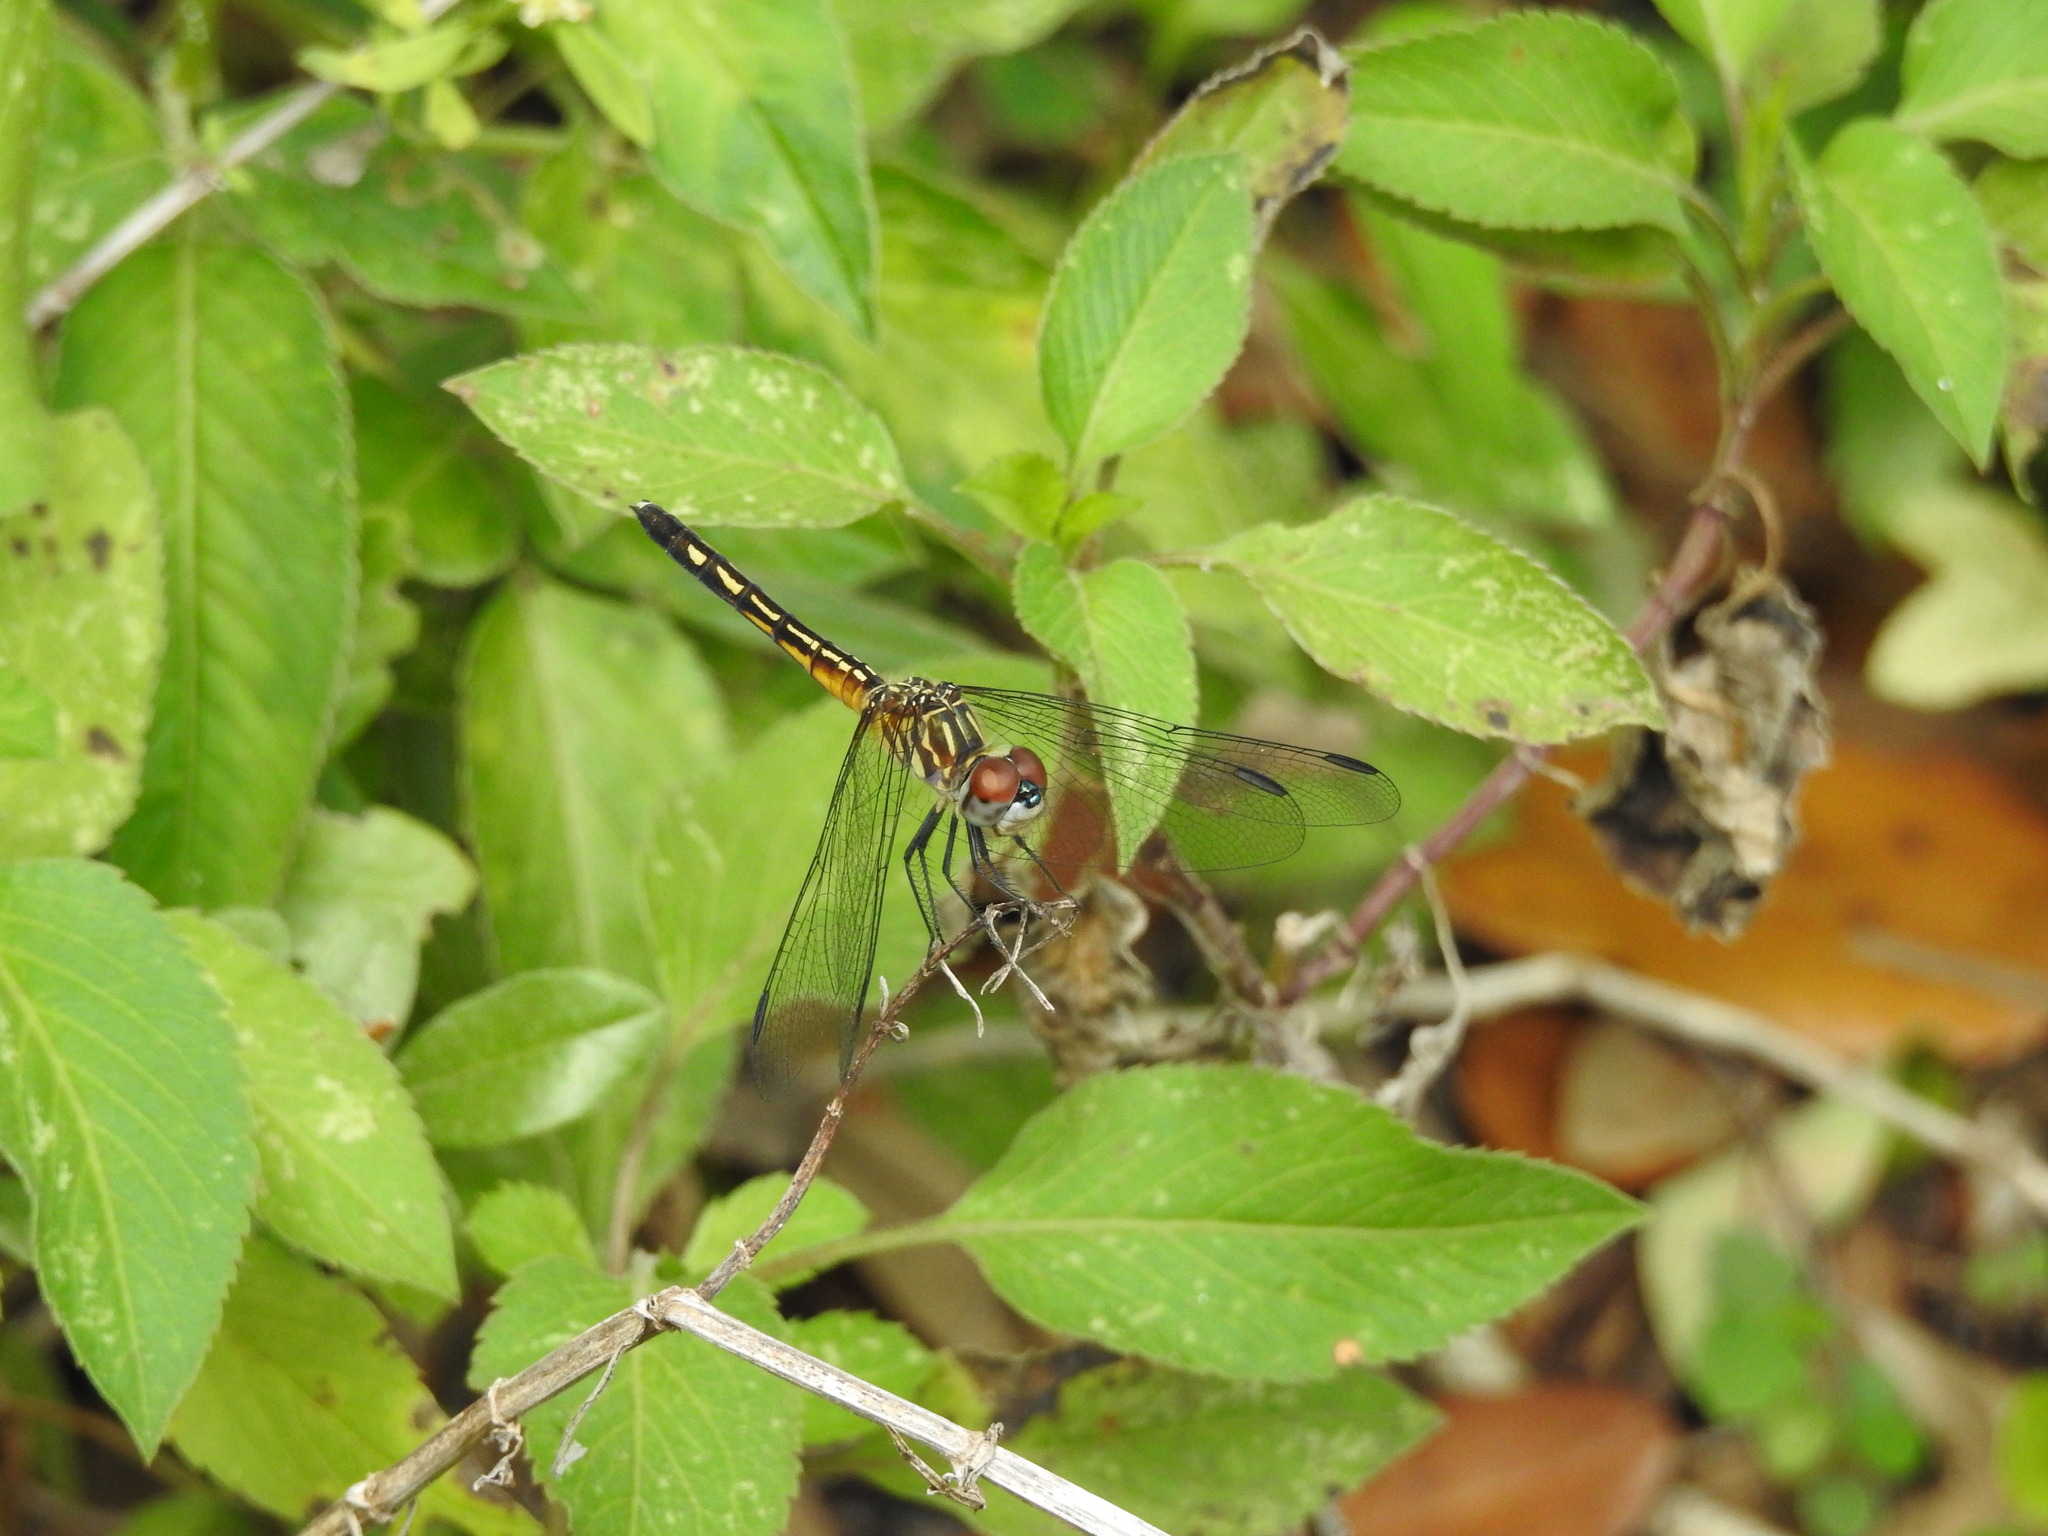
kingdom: Animalia
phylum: Arthropoda
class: Insecta
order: Odonata
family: Libellulidae
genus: Pachydiplax
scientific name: Pachydiplax longipennis
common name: Blue dasher
